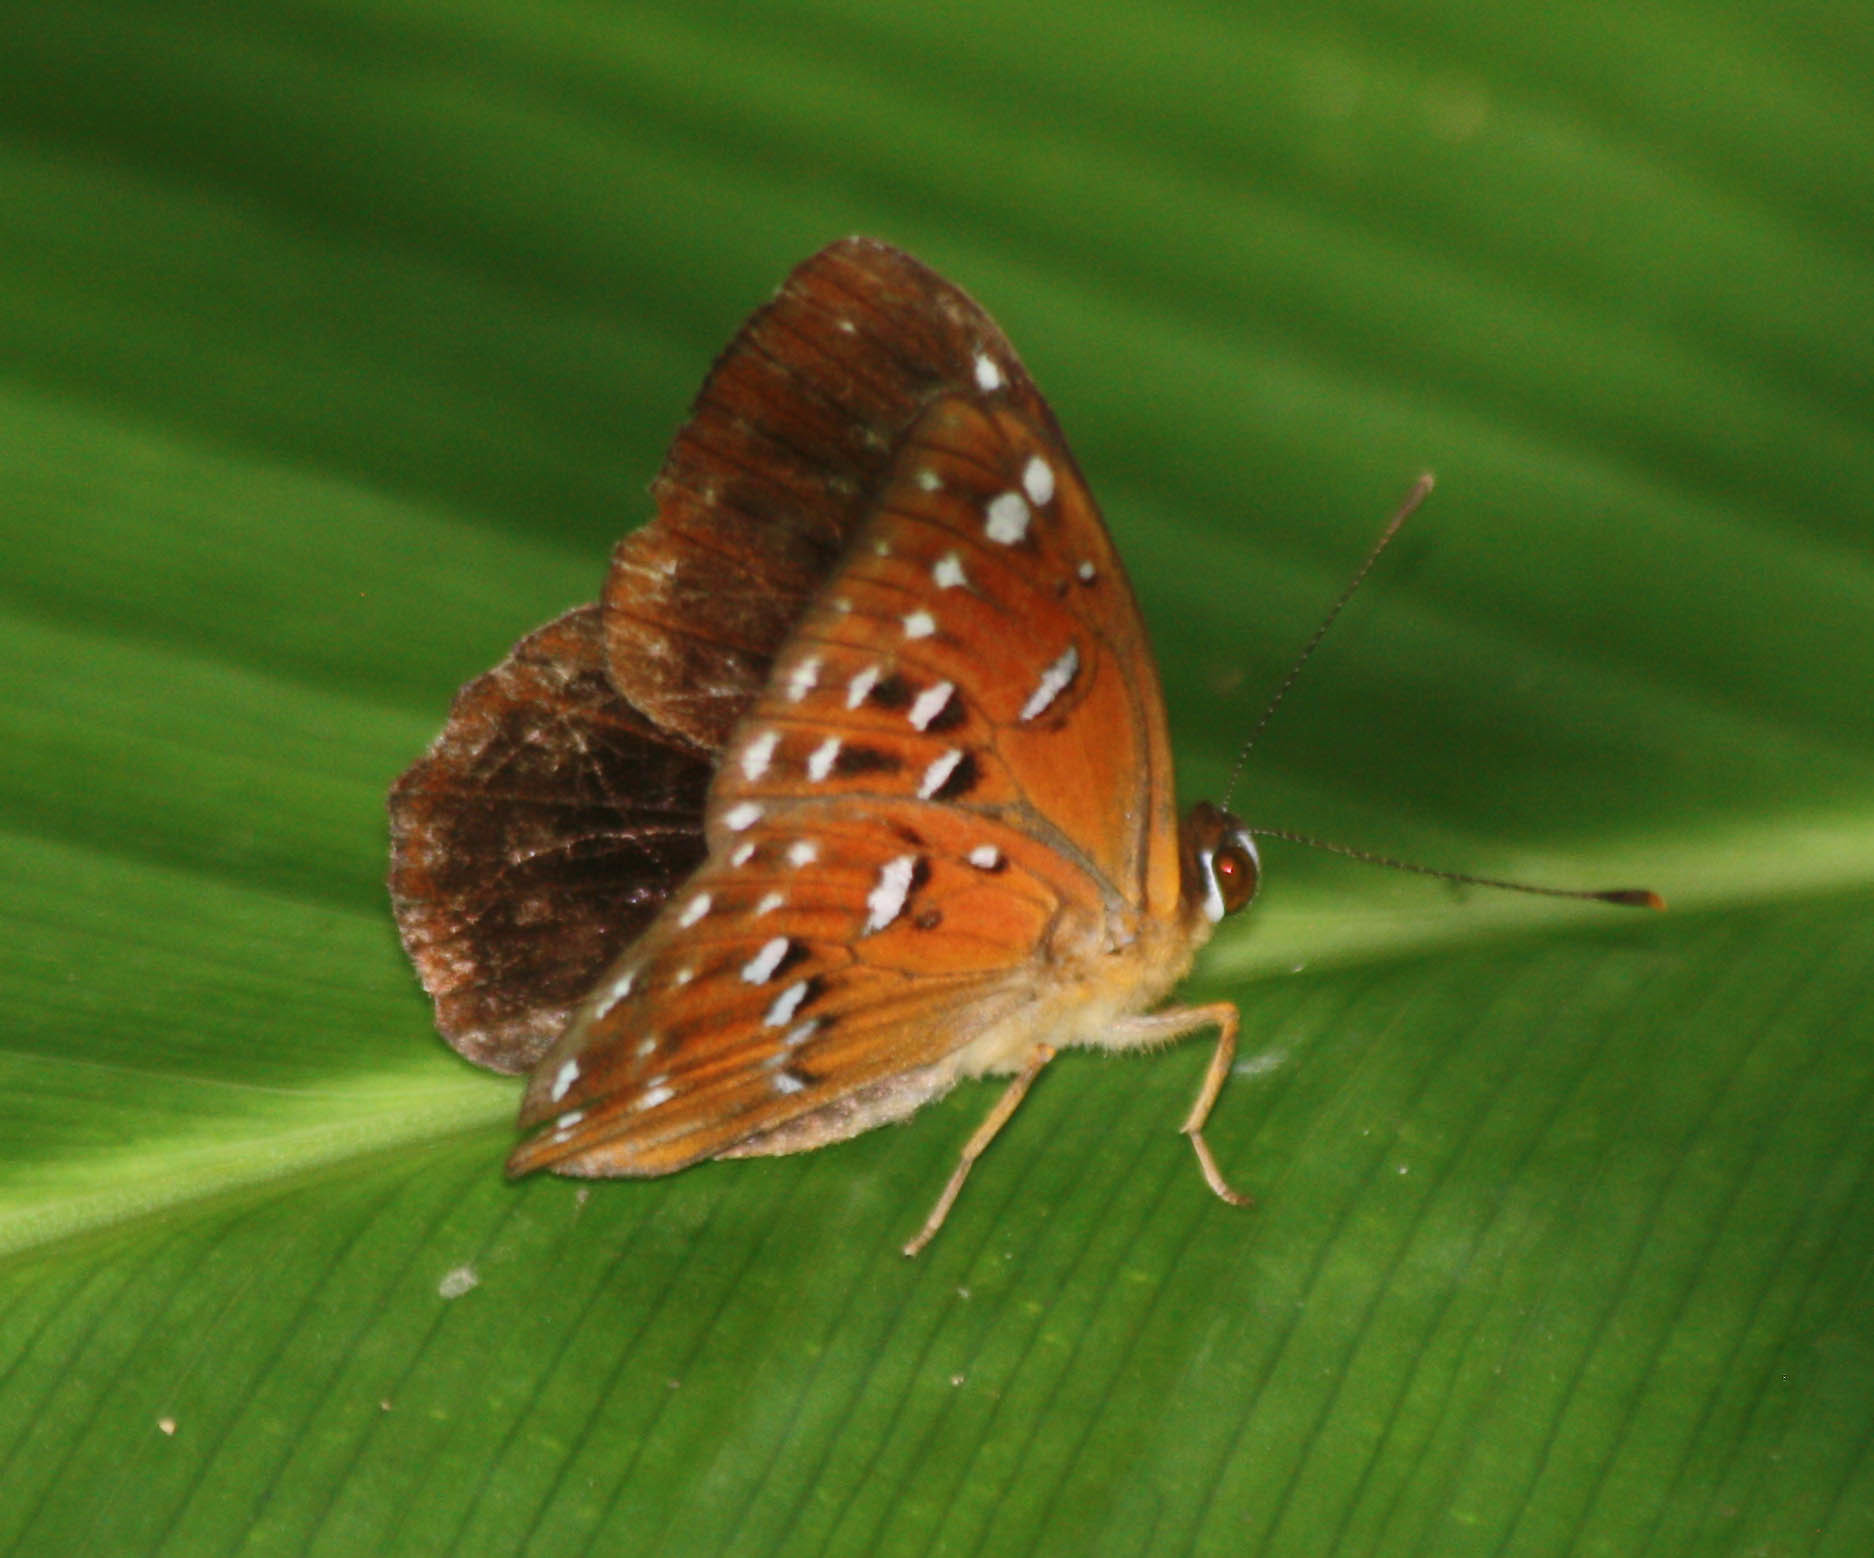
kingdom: Animalia
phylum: Arthropoda
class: Insecta
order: Lepidoptera
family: Erebidae
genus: Dysschema
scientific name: Dysschema
